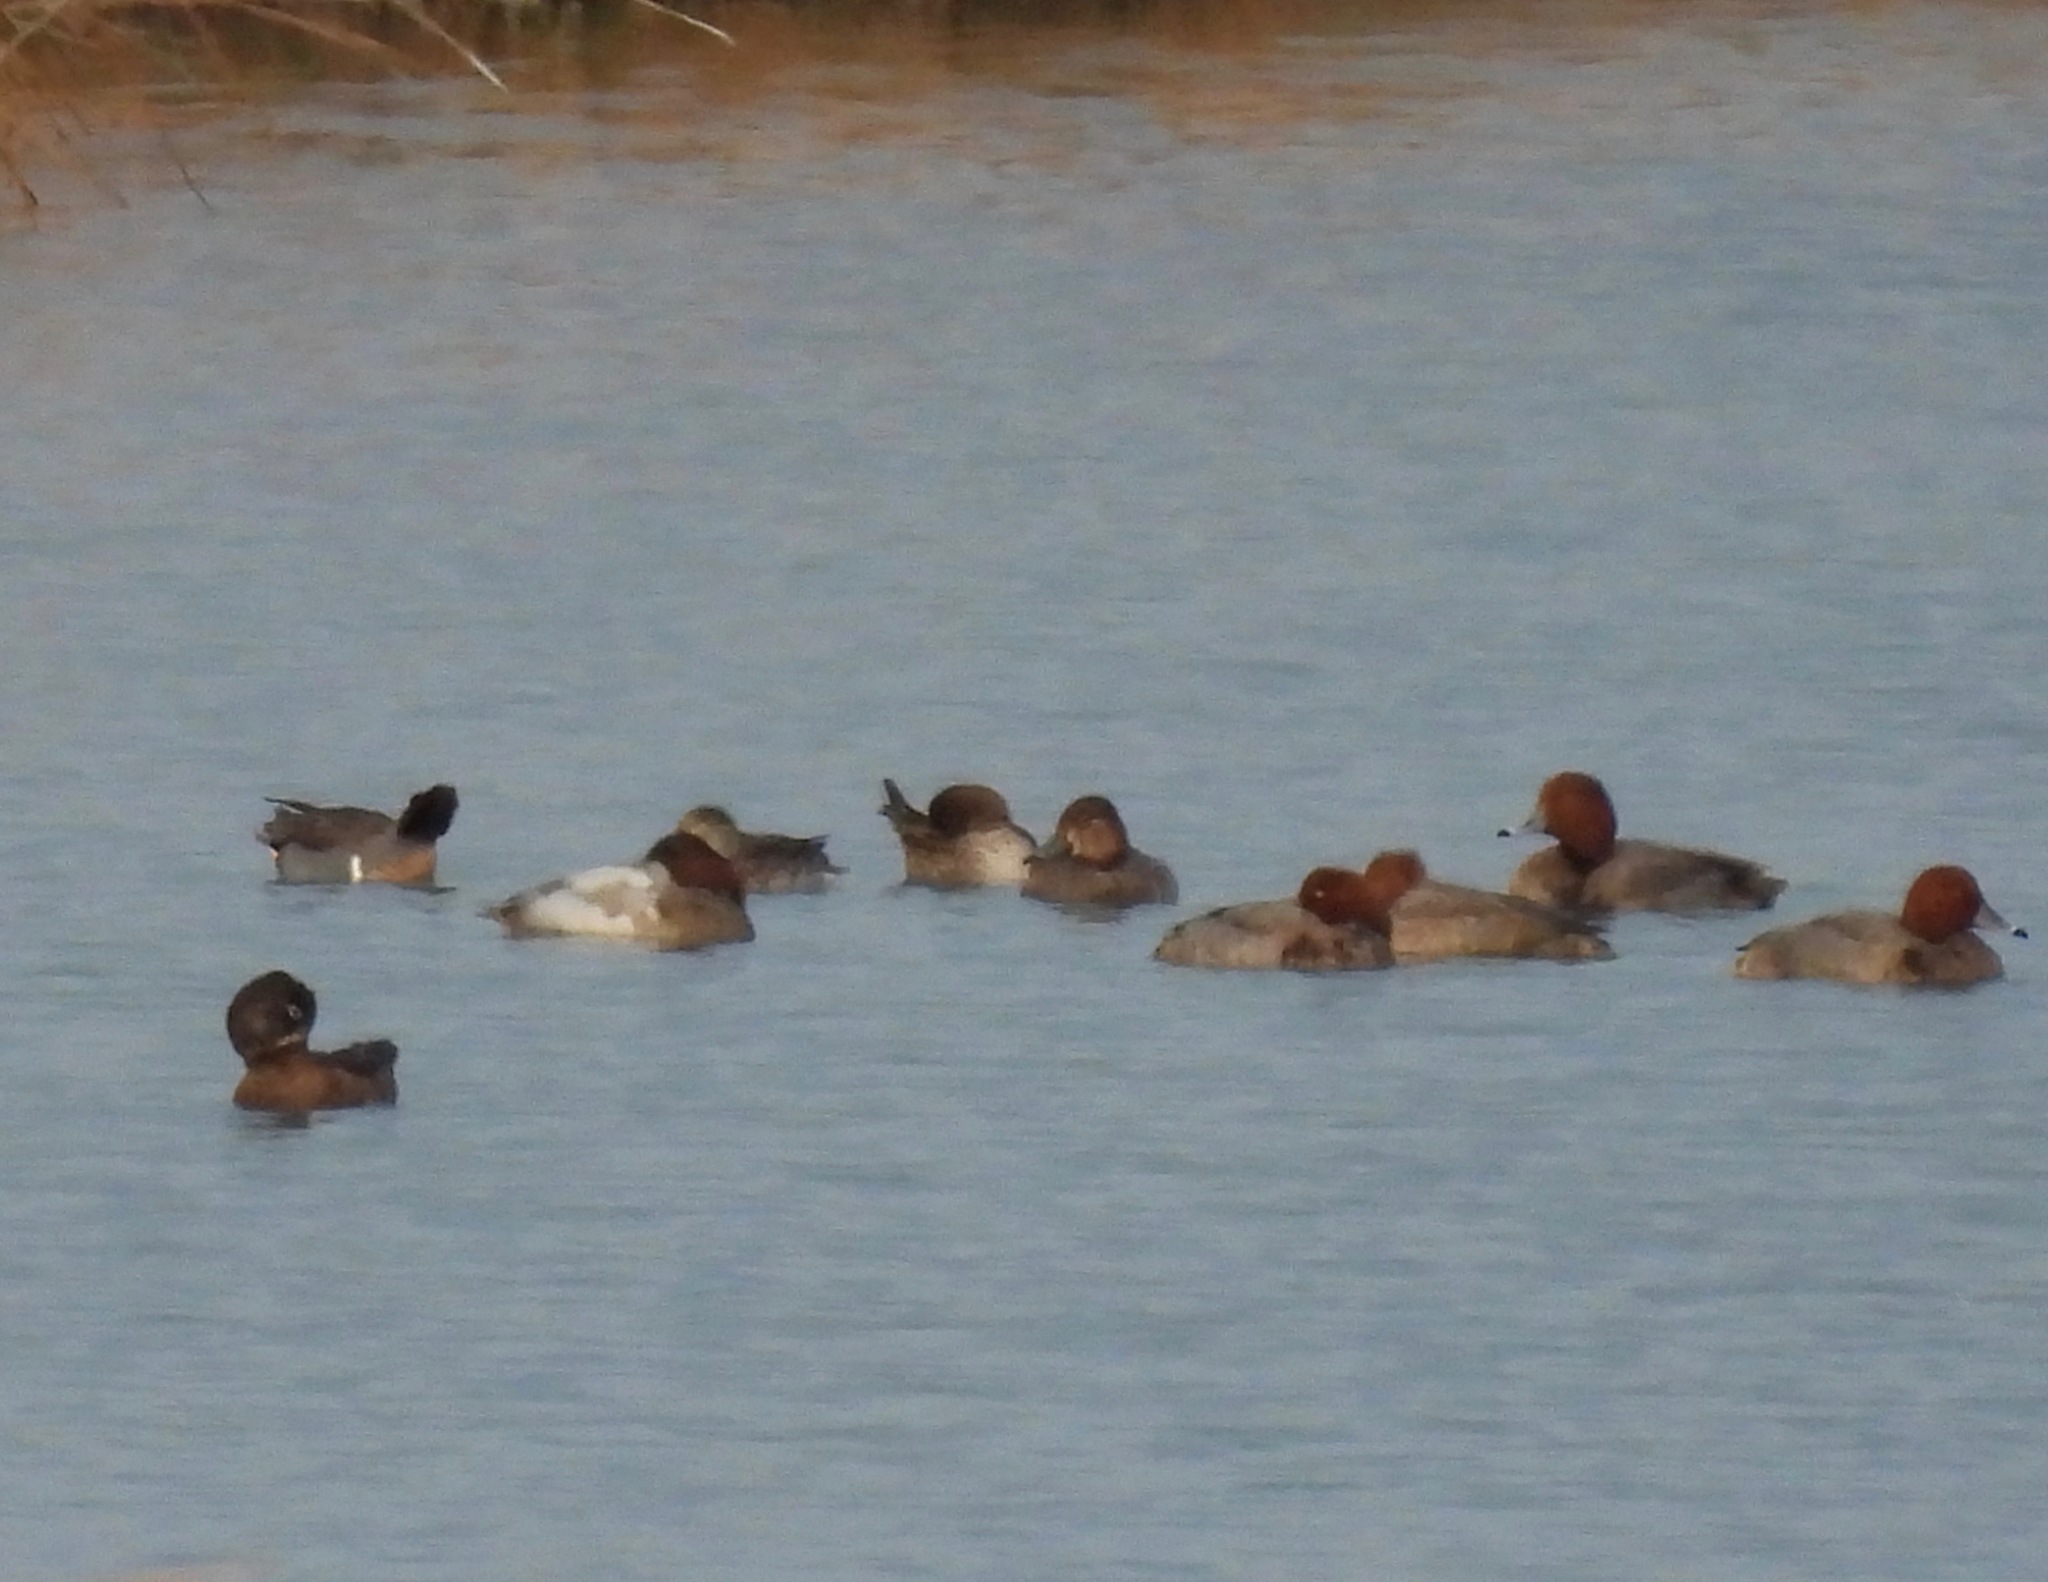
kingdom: Animalia
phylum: Chordata
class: Aves
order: Anseriformes
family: Anatidae
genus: Aythya
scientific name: Aythya americana
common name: Redhead
